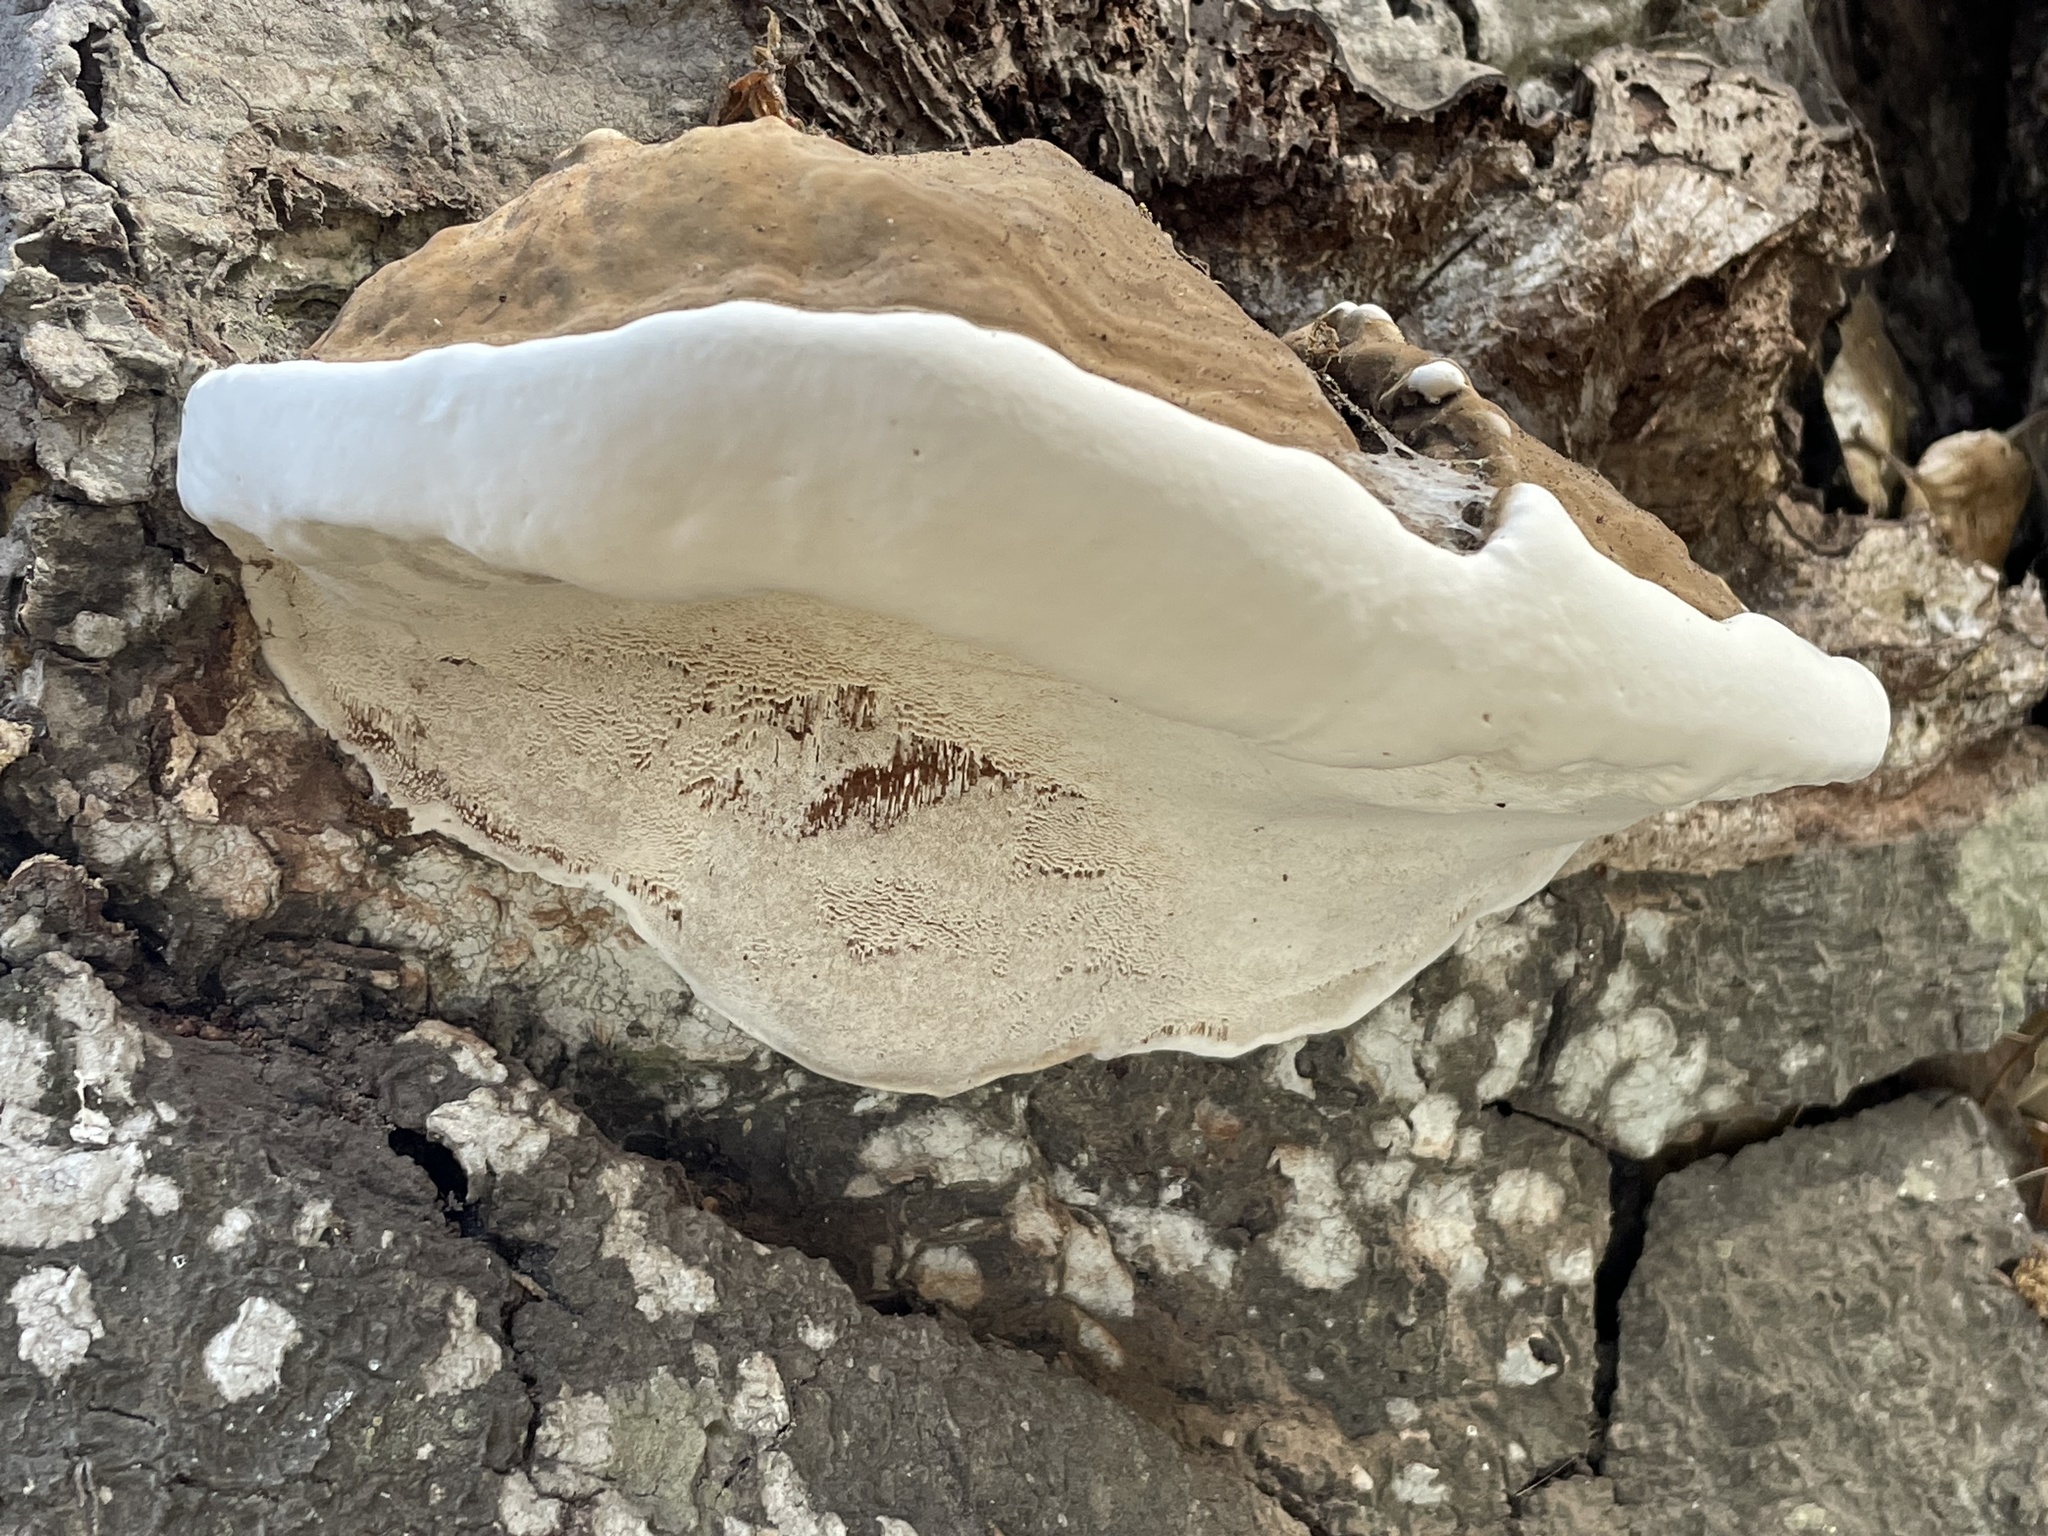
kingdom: Fungi
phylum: Basidiomycota
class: Agaricomycetes
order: Polyporales
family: Polyporaceae
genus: Ganoderma
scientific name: Ganoderma brownii
